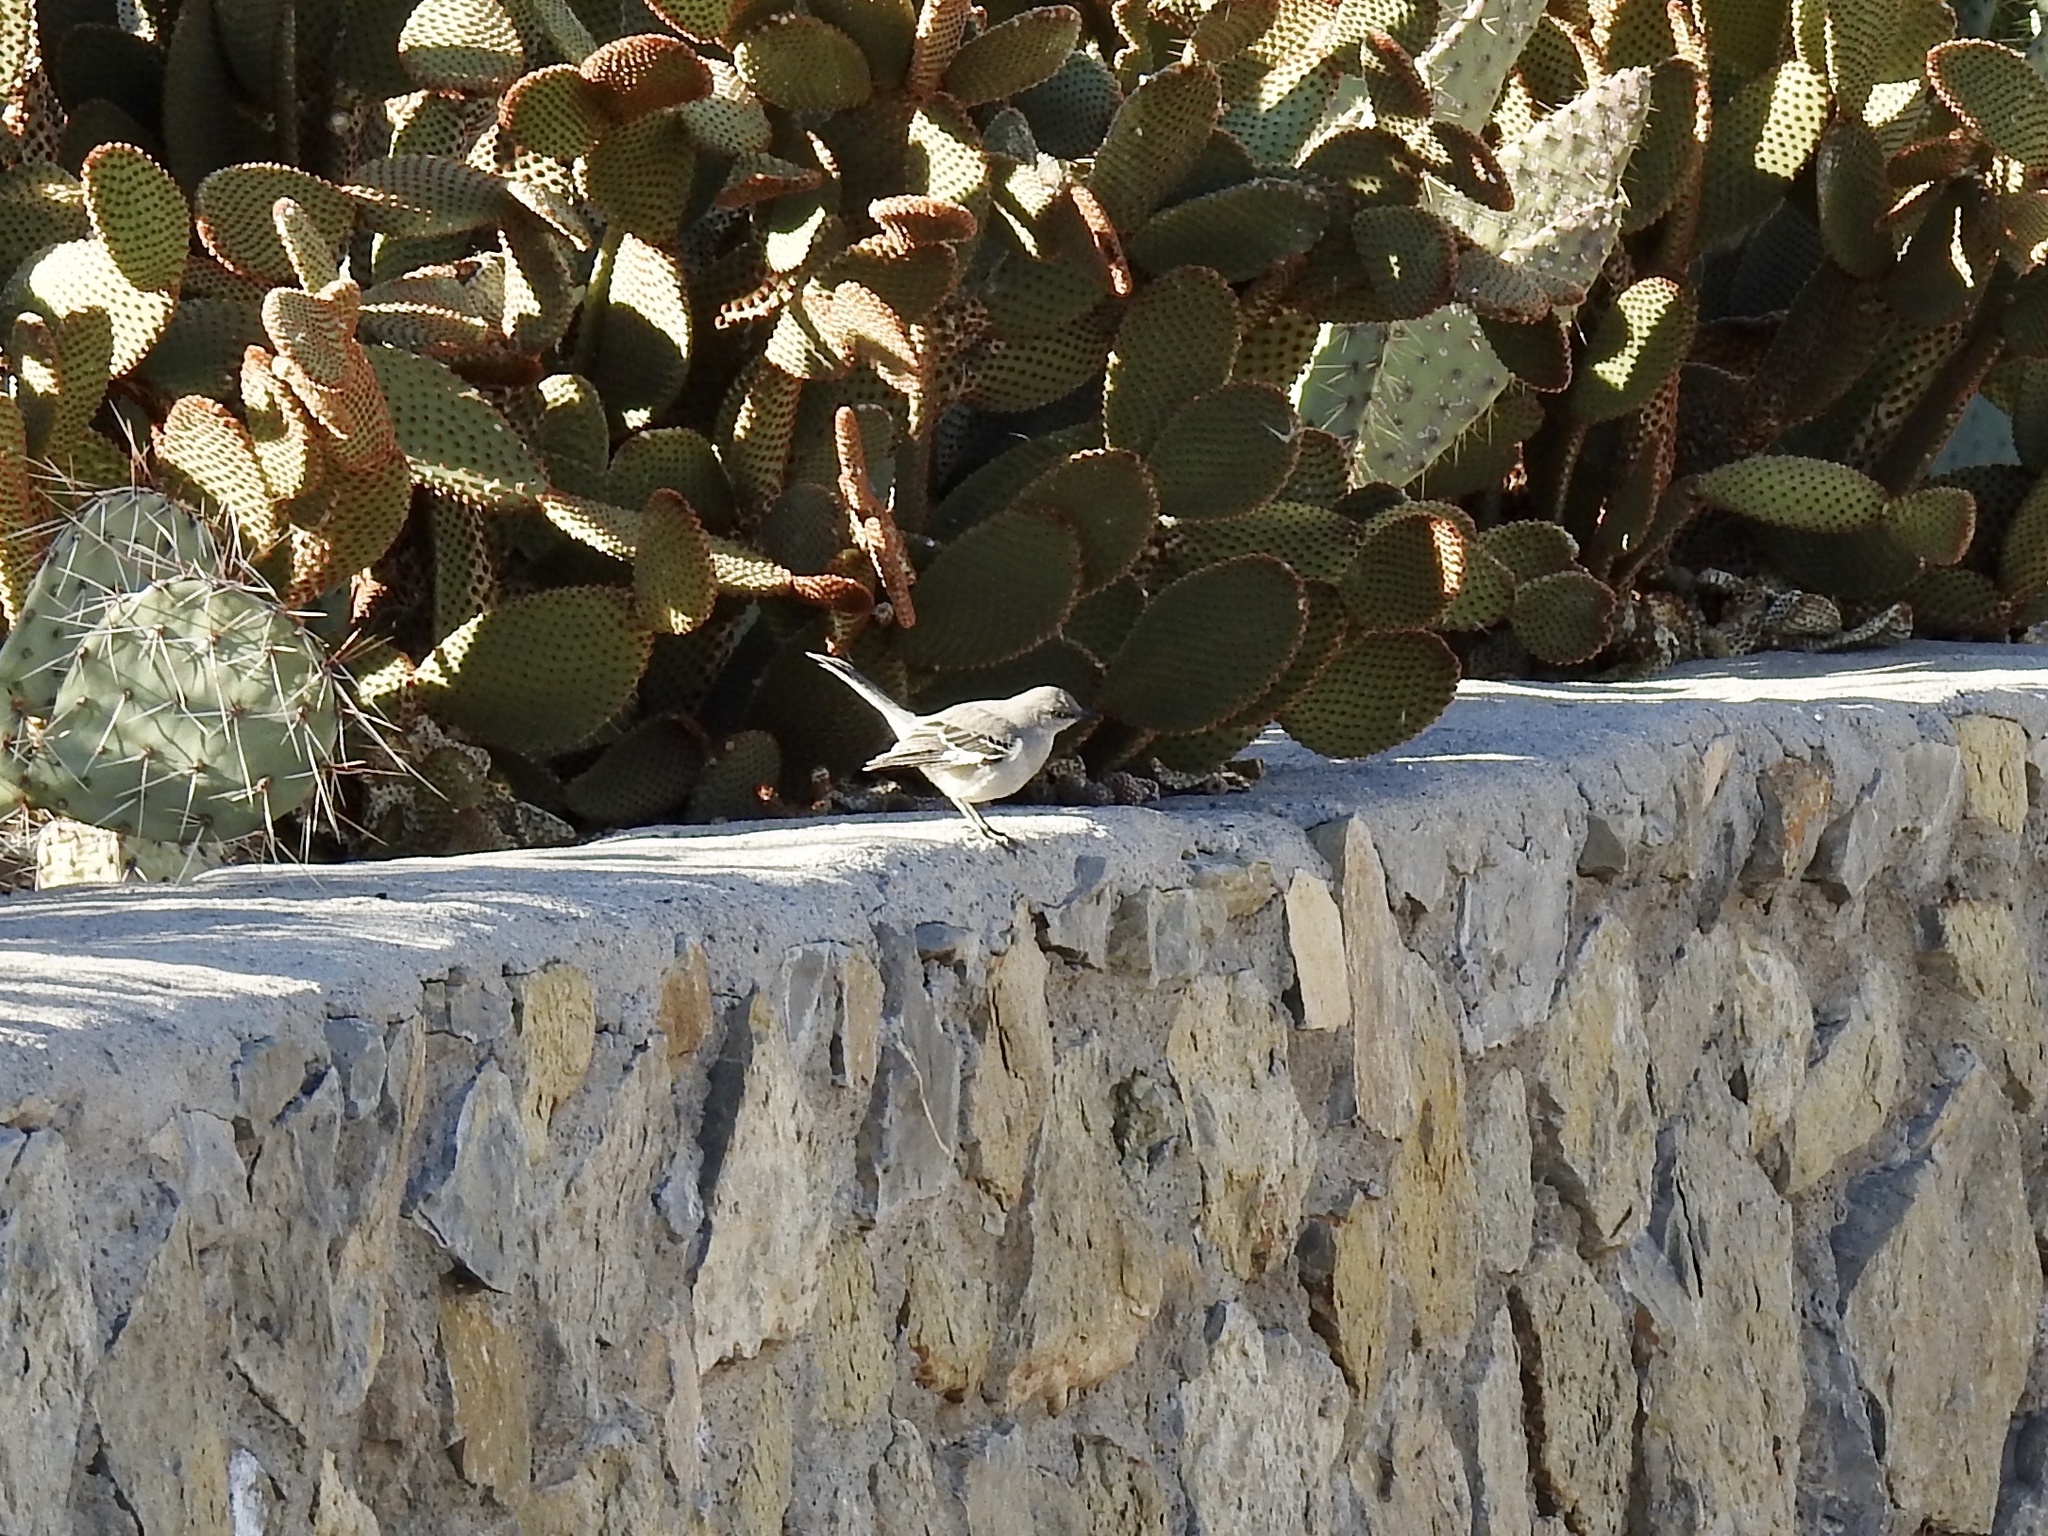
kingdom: Animalia
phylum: Chordata
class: Aves
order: Passeriformes
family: Mimidae
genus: Mimus
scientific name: Mimus polyglottos
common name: Northern mockingbird
